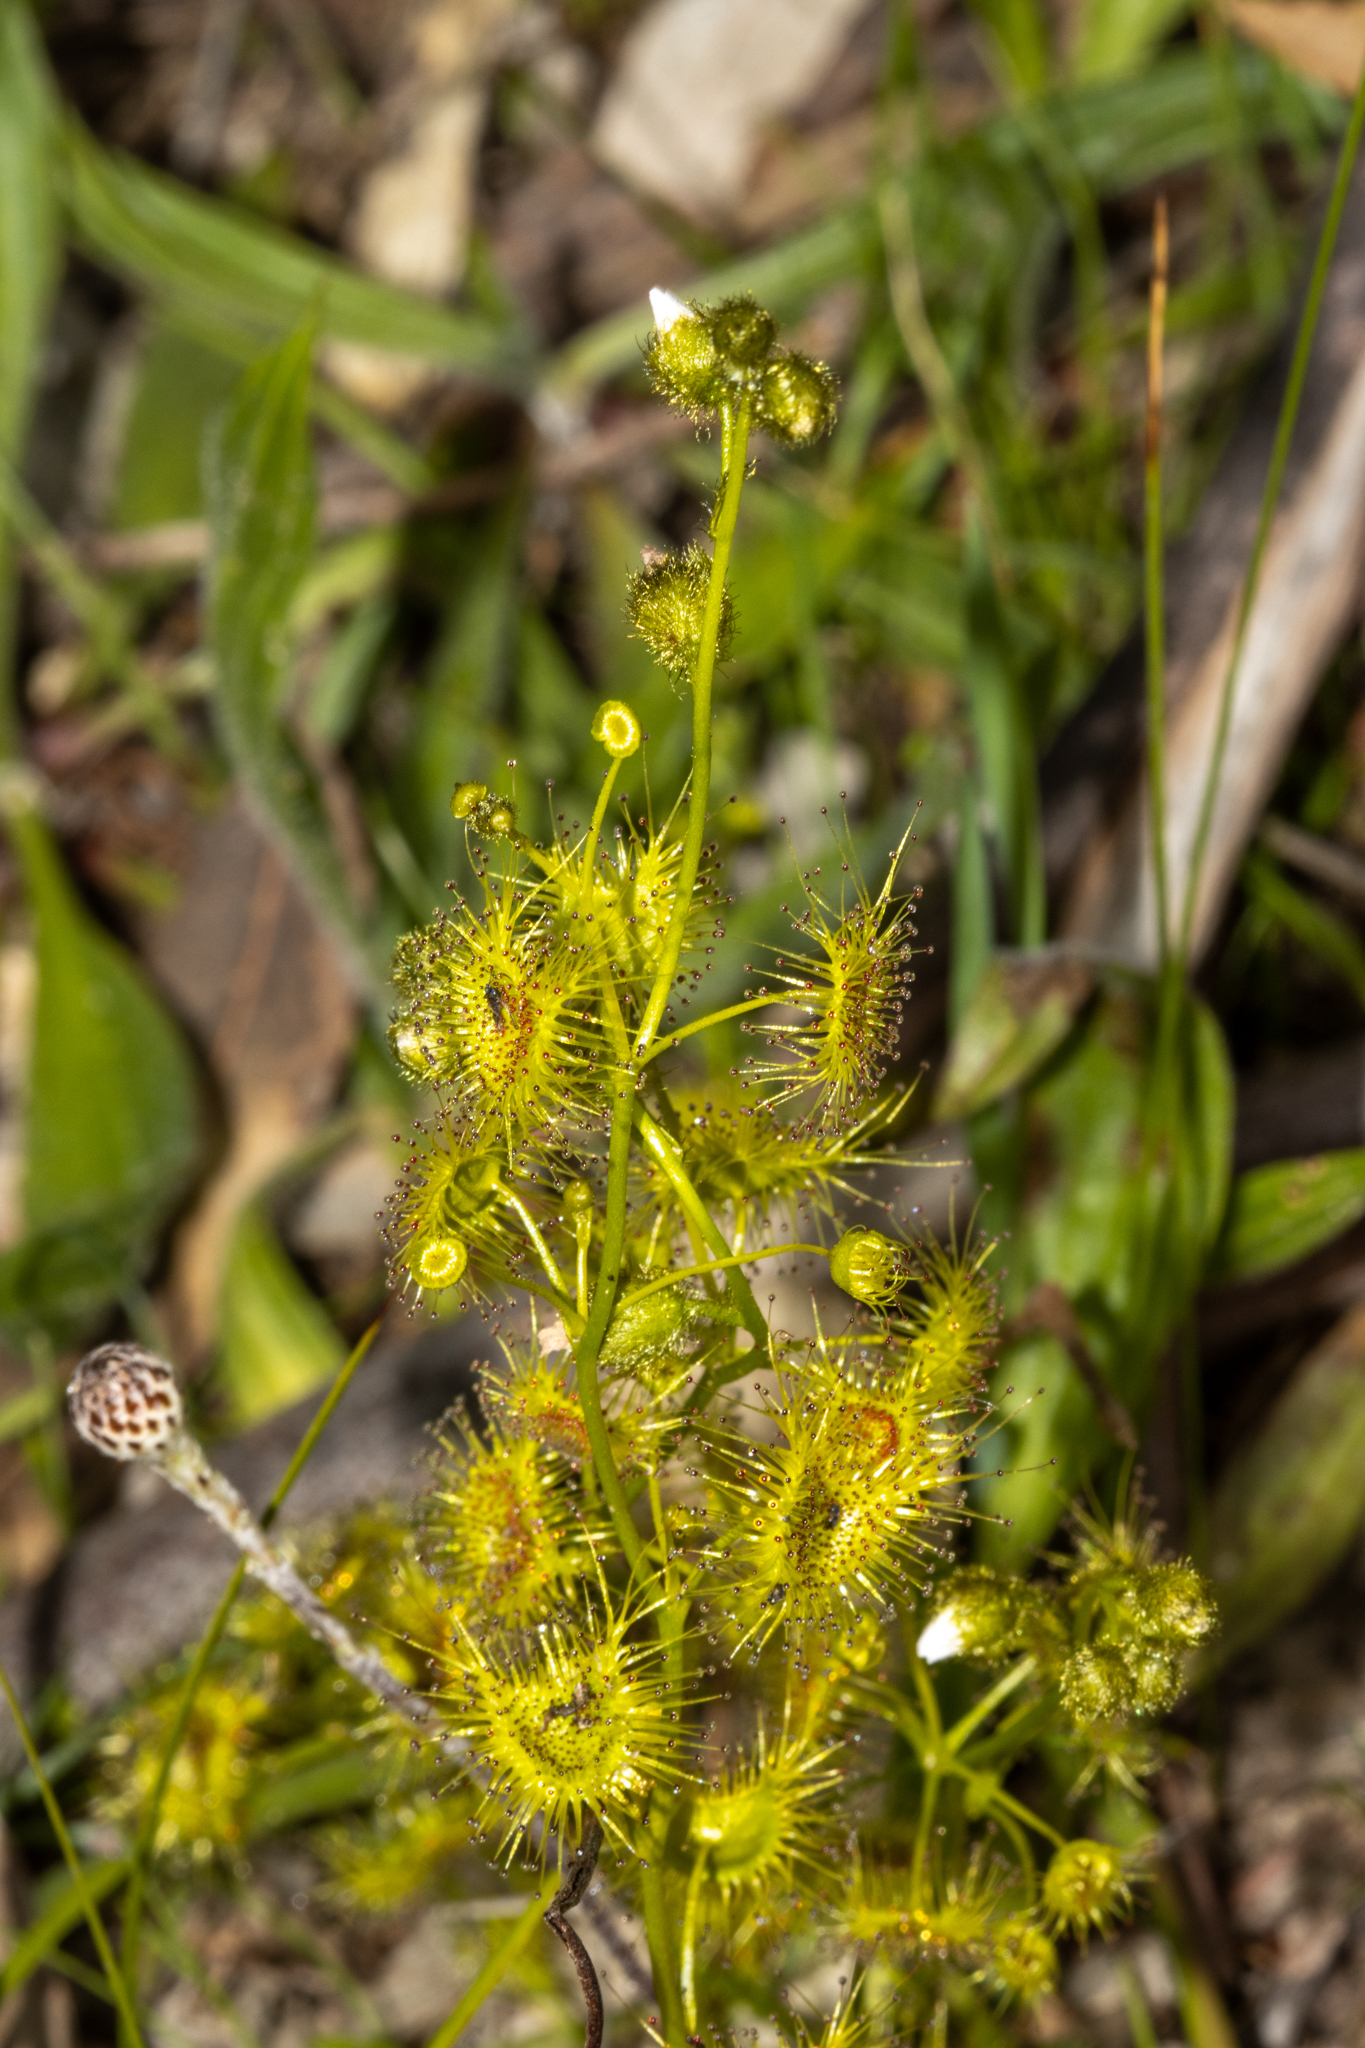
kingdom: Plantae
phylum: Tracheophyta
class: Magnoliopsida
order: Caryophyllales
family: Droseraceae
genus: Drosera
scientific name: Drosera gunniana
